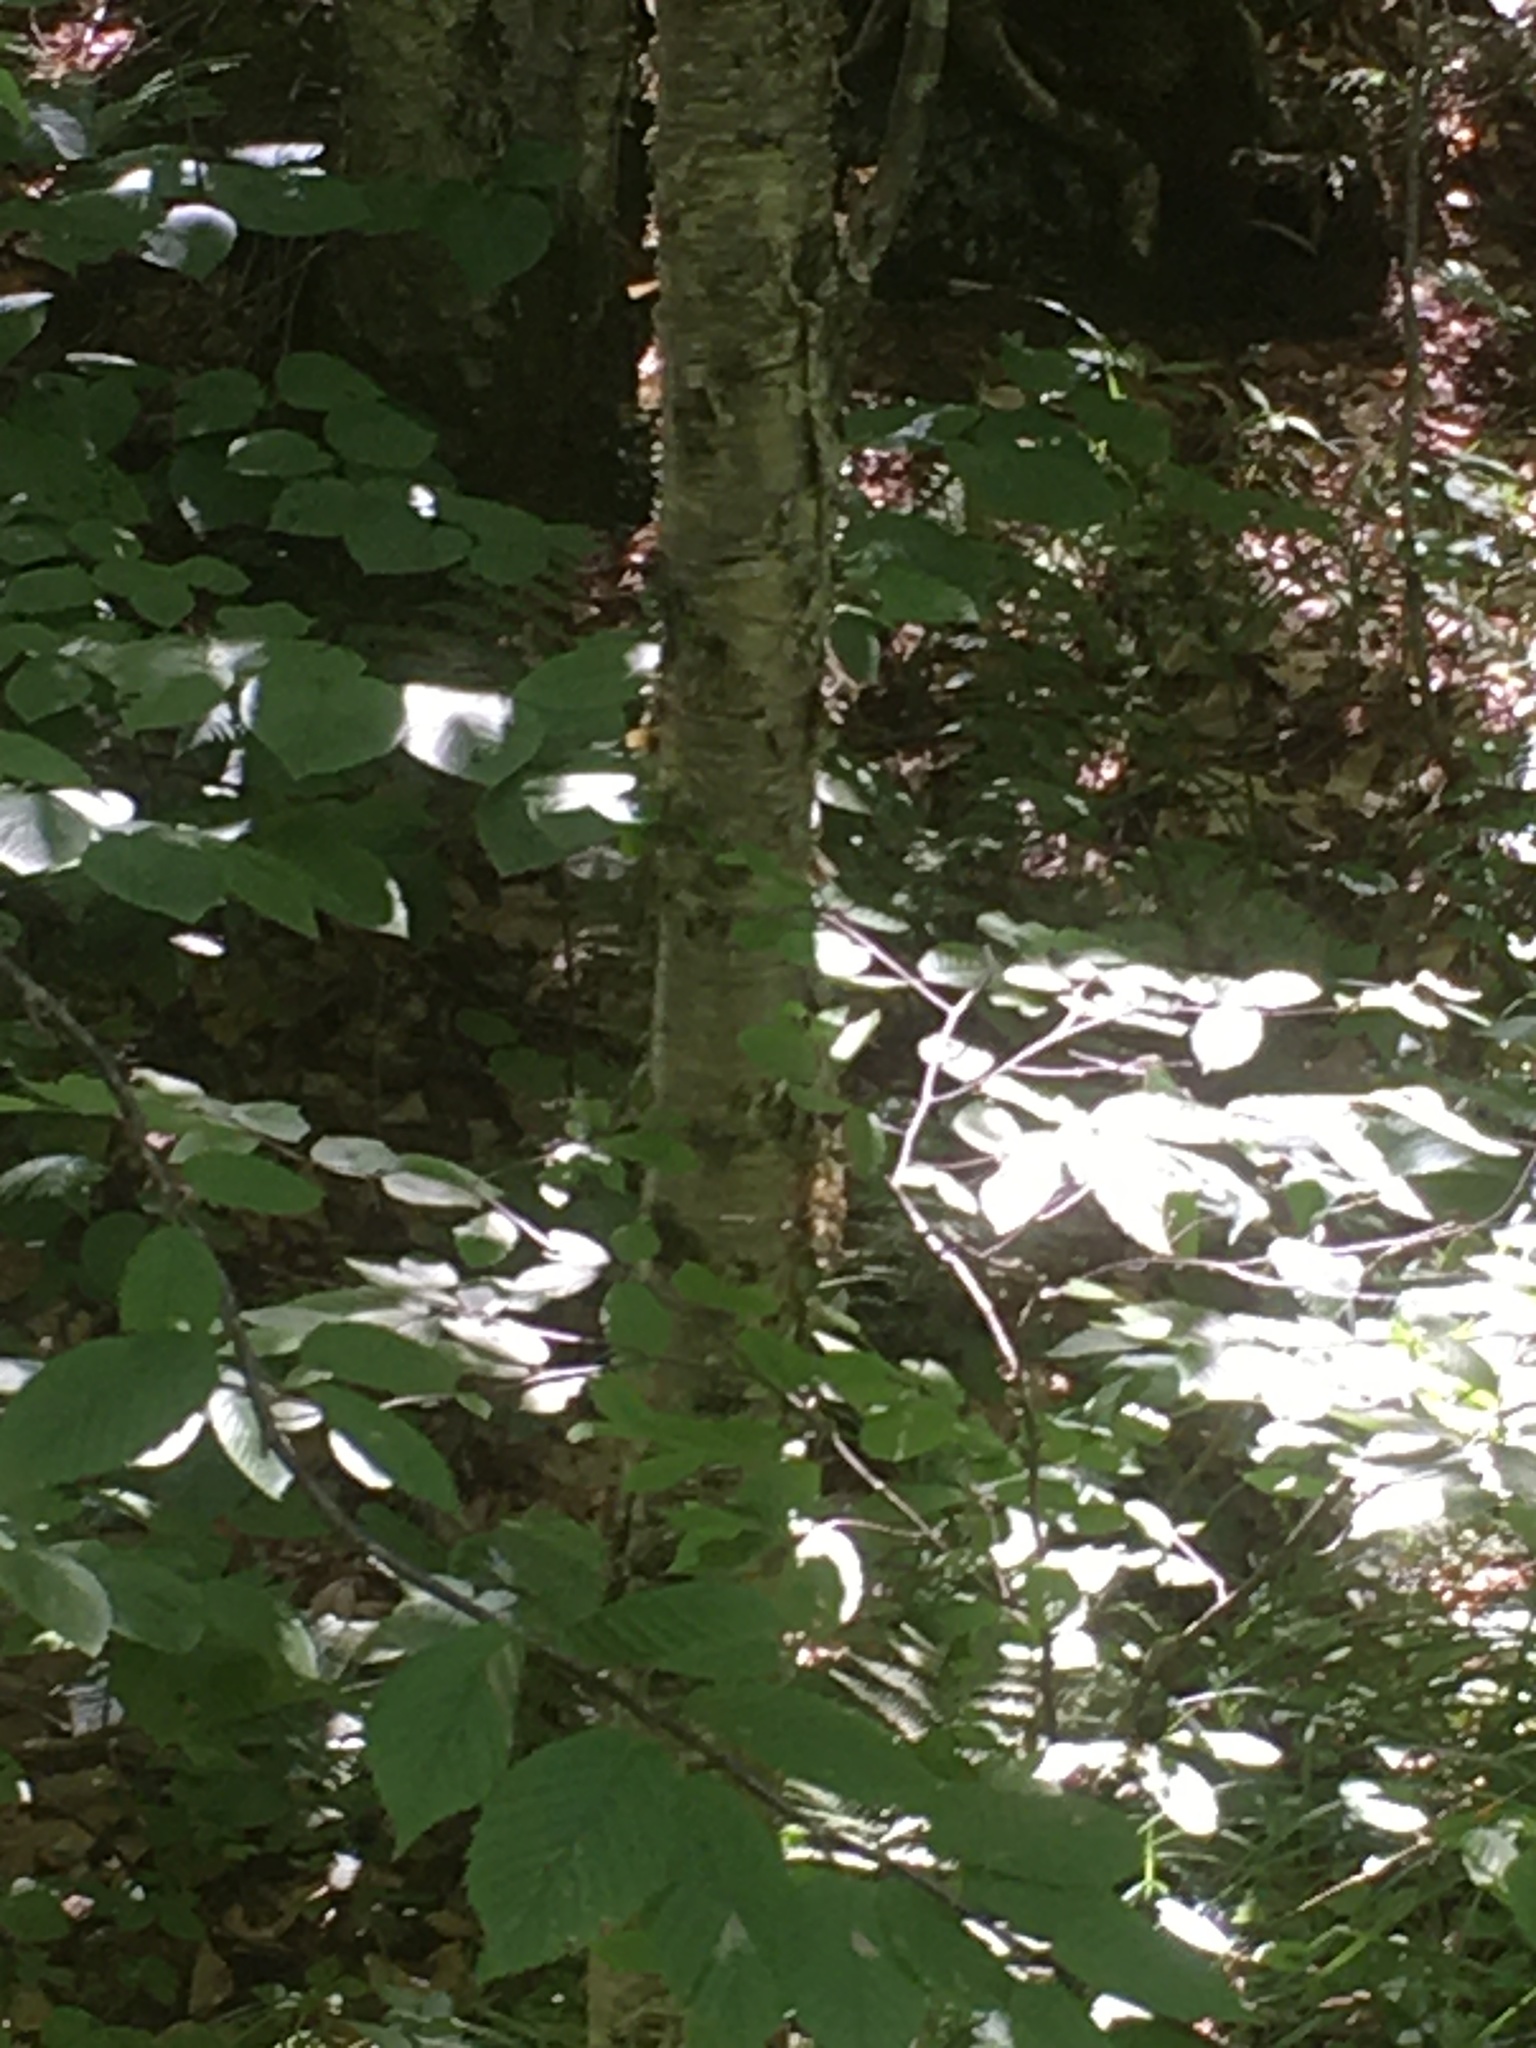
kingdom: Plantae
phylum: Tracheophyta
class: Magnoliopsida
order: Fagales
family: Betulaceae
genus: Betula
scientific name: Betula alleghaniensis
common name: Yellow birch
